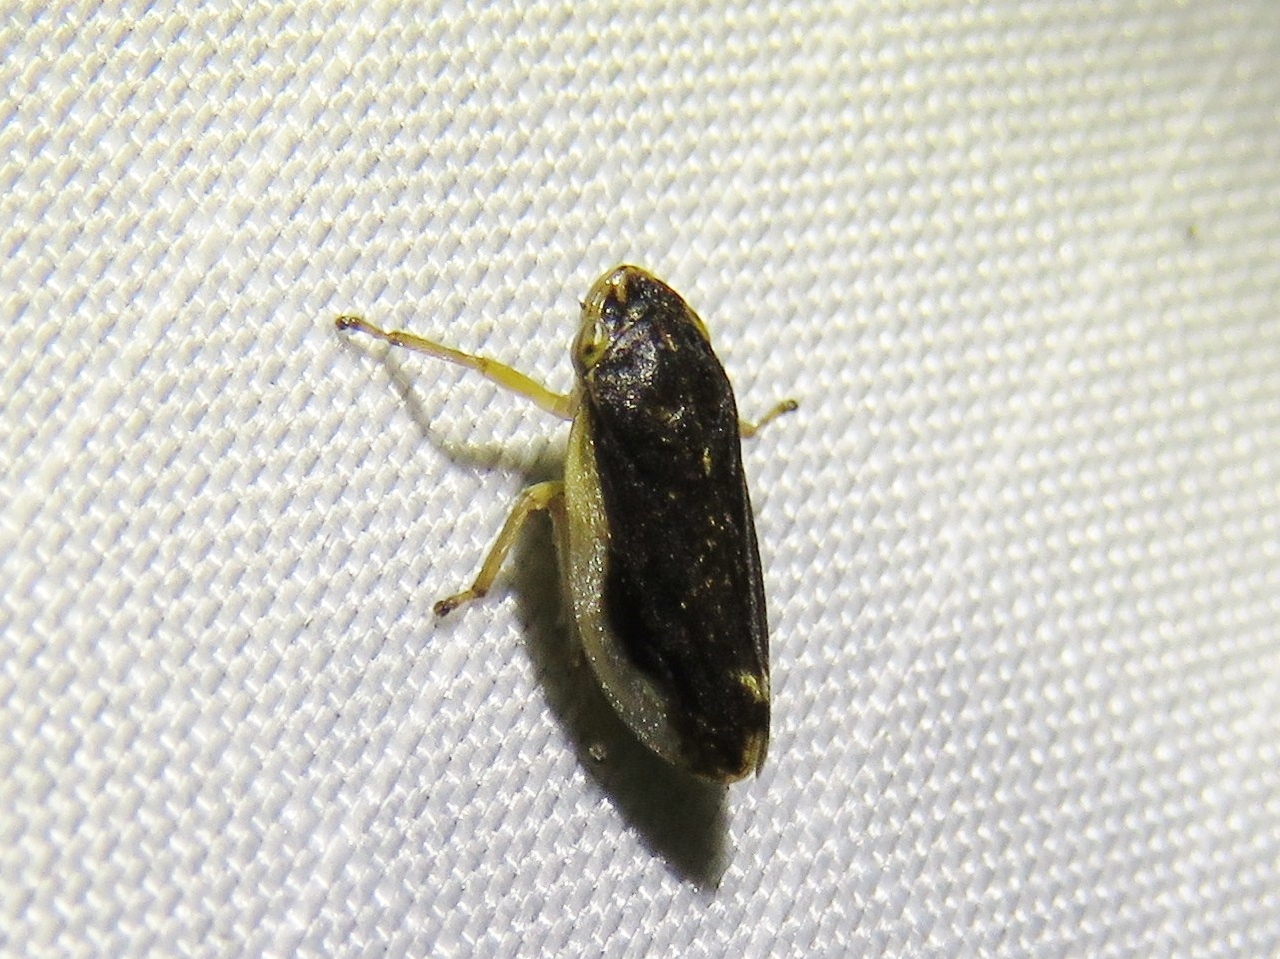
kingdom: Animalia
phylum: Arthropoda
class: Insecta
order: Hemiptera
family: Aphrophoridae
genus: Philaenus
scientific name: Philaenus spumarius
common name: Meadow spittlebug
